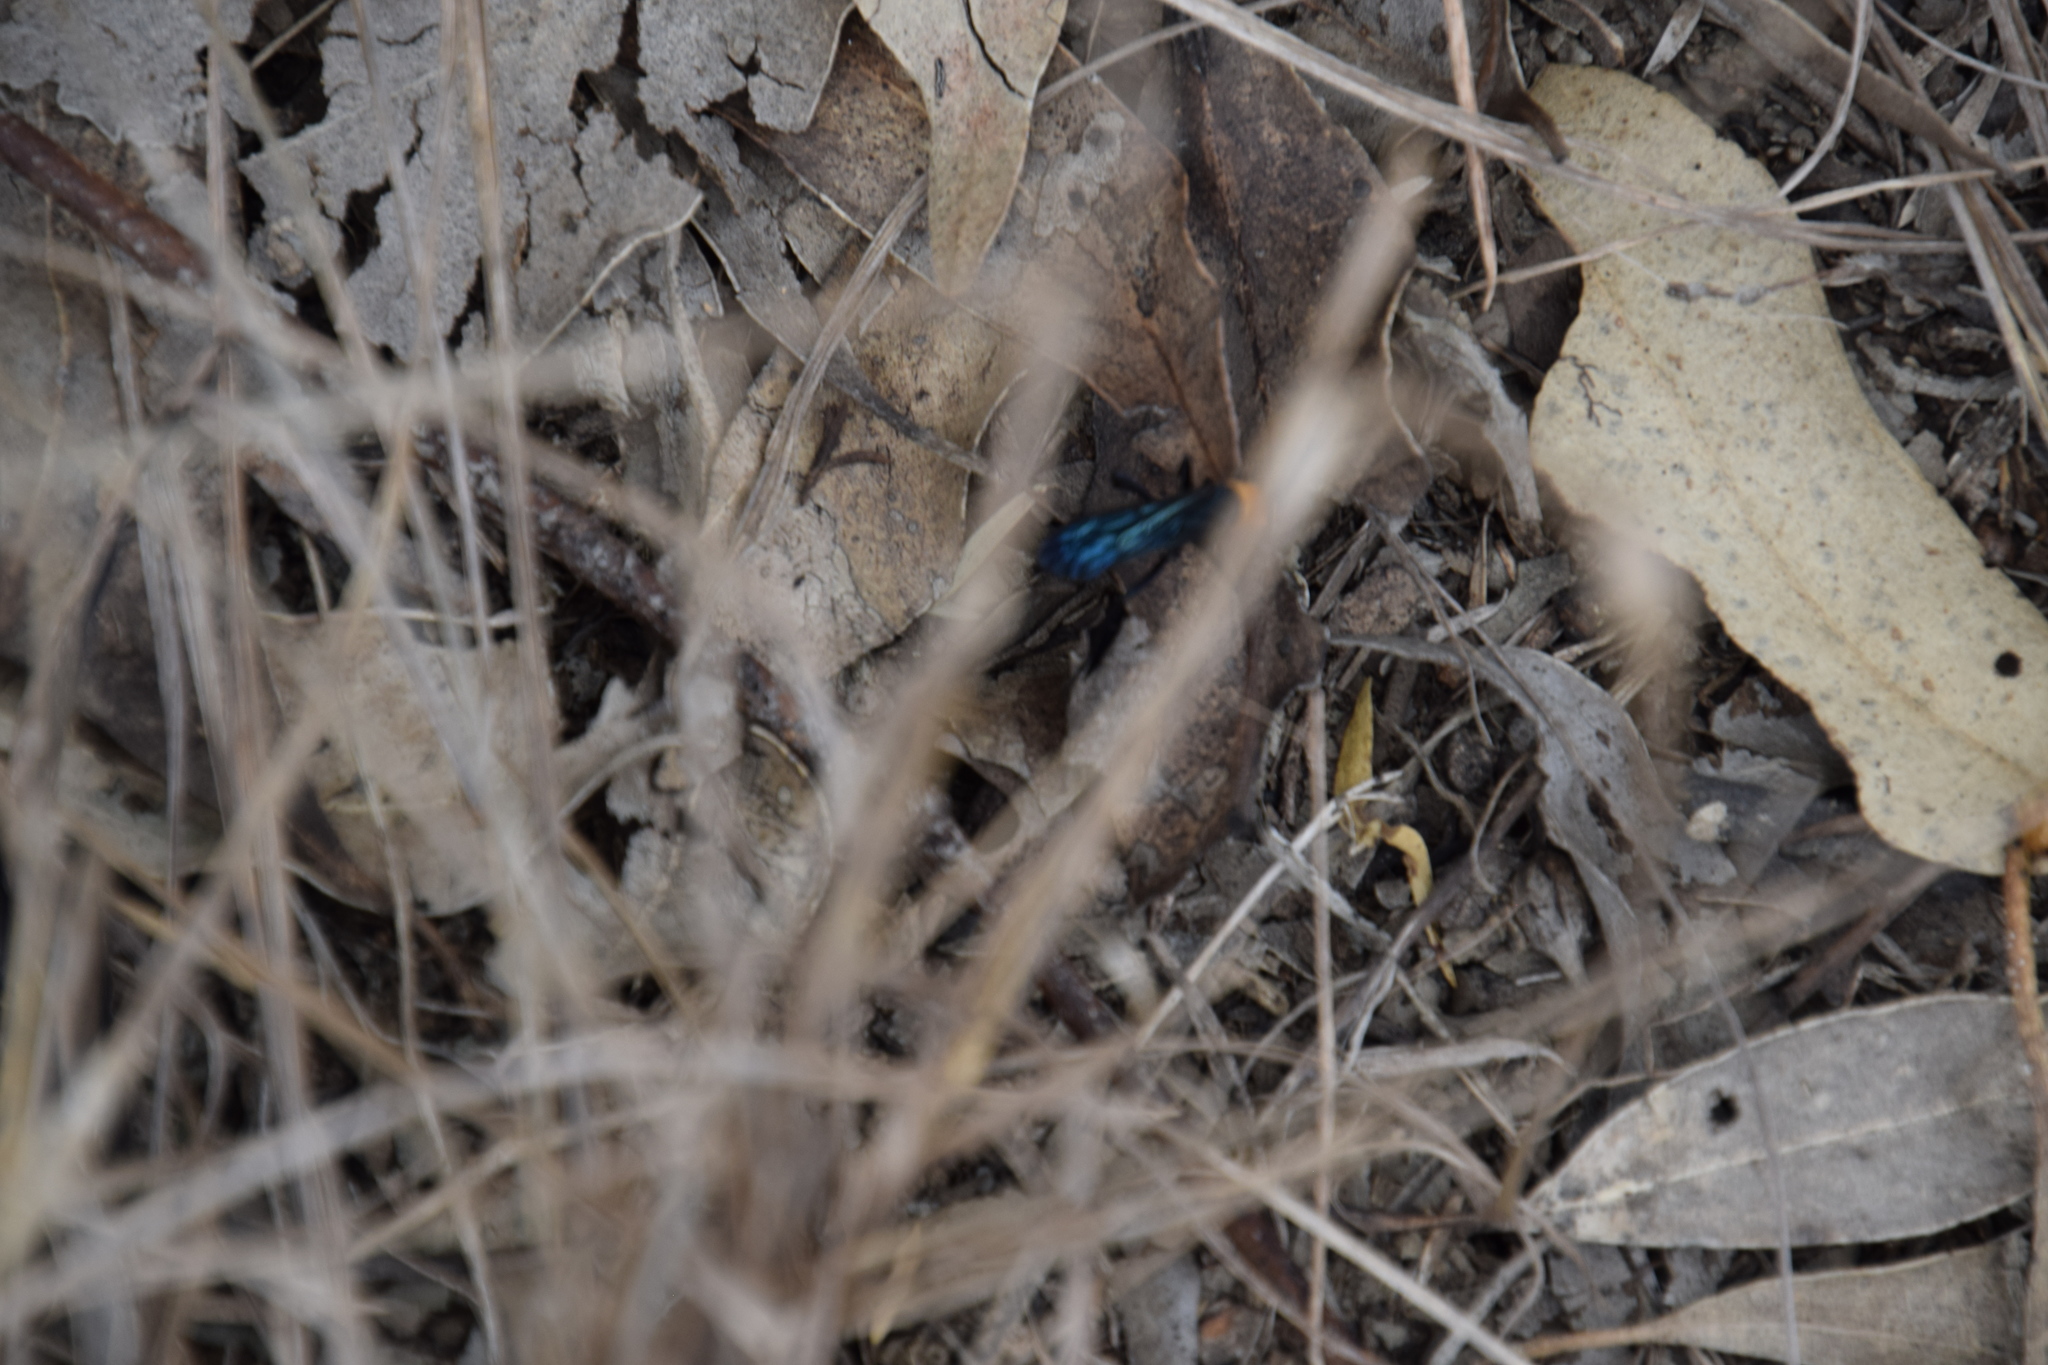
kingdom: Animalia
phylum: Arthropoda
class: Insecta
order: Hymenoptera
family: Pompilidae
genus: Ferreola
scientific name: Ferreola handschini
